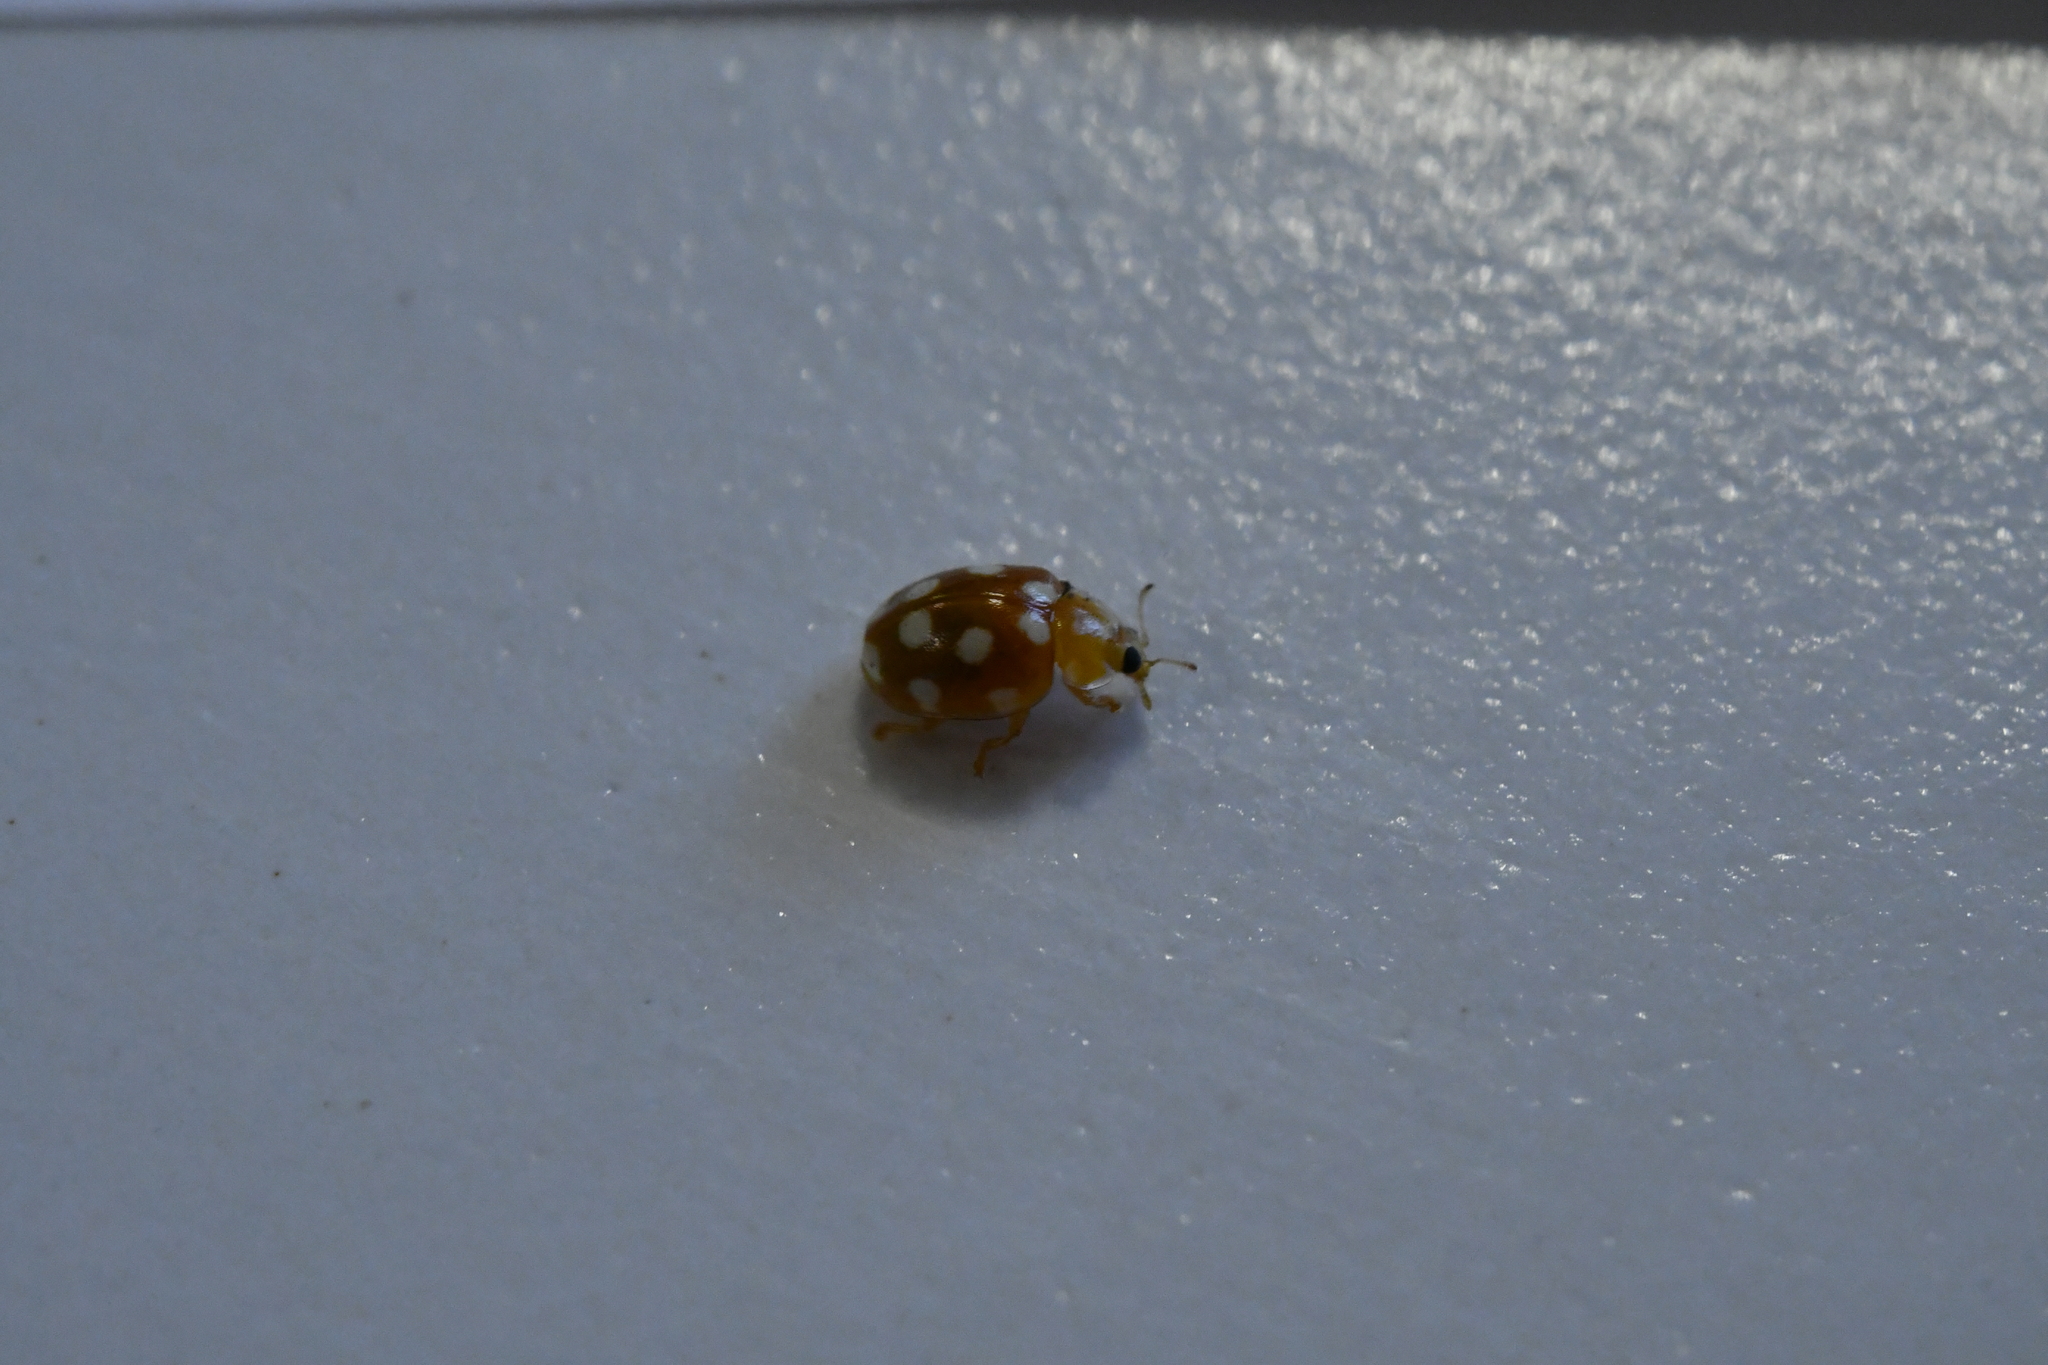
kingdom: Animalia
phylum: Arthropoda
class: Insecta
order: Coleoptera
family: Coccinellidae
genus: Vibidia
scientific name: Vibidia duodecimguttata
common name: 12-spot ladybird
